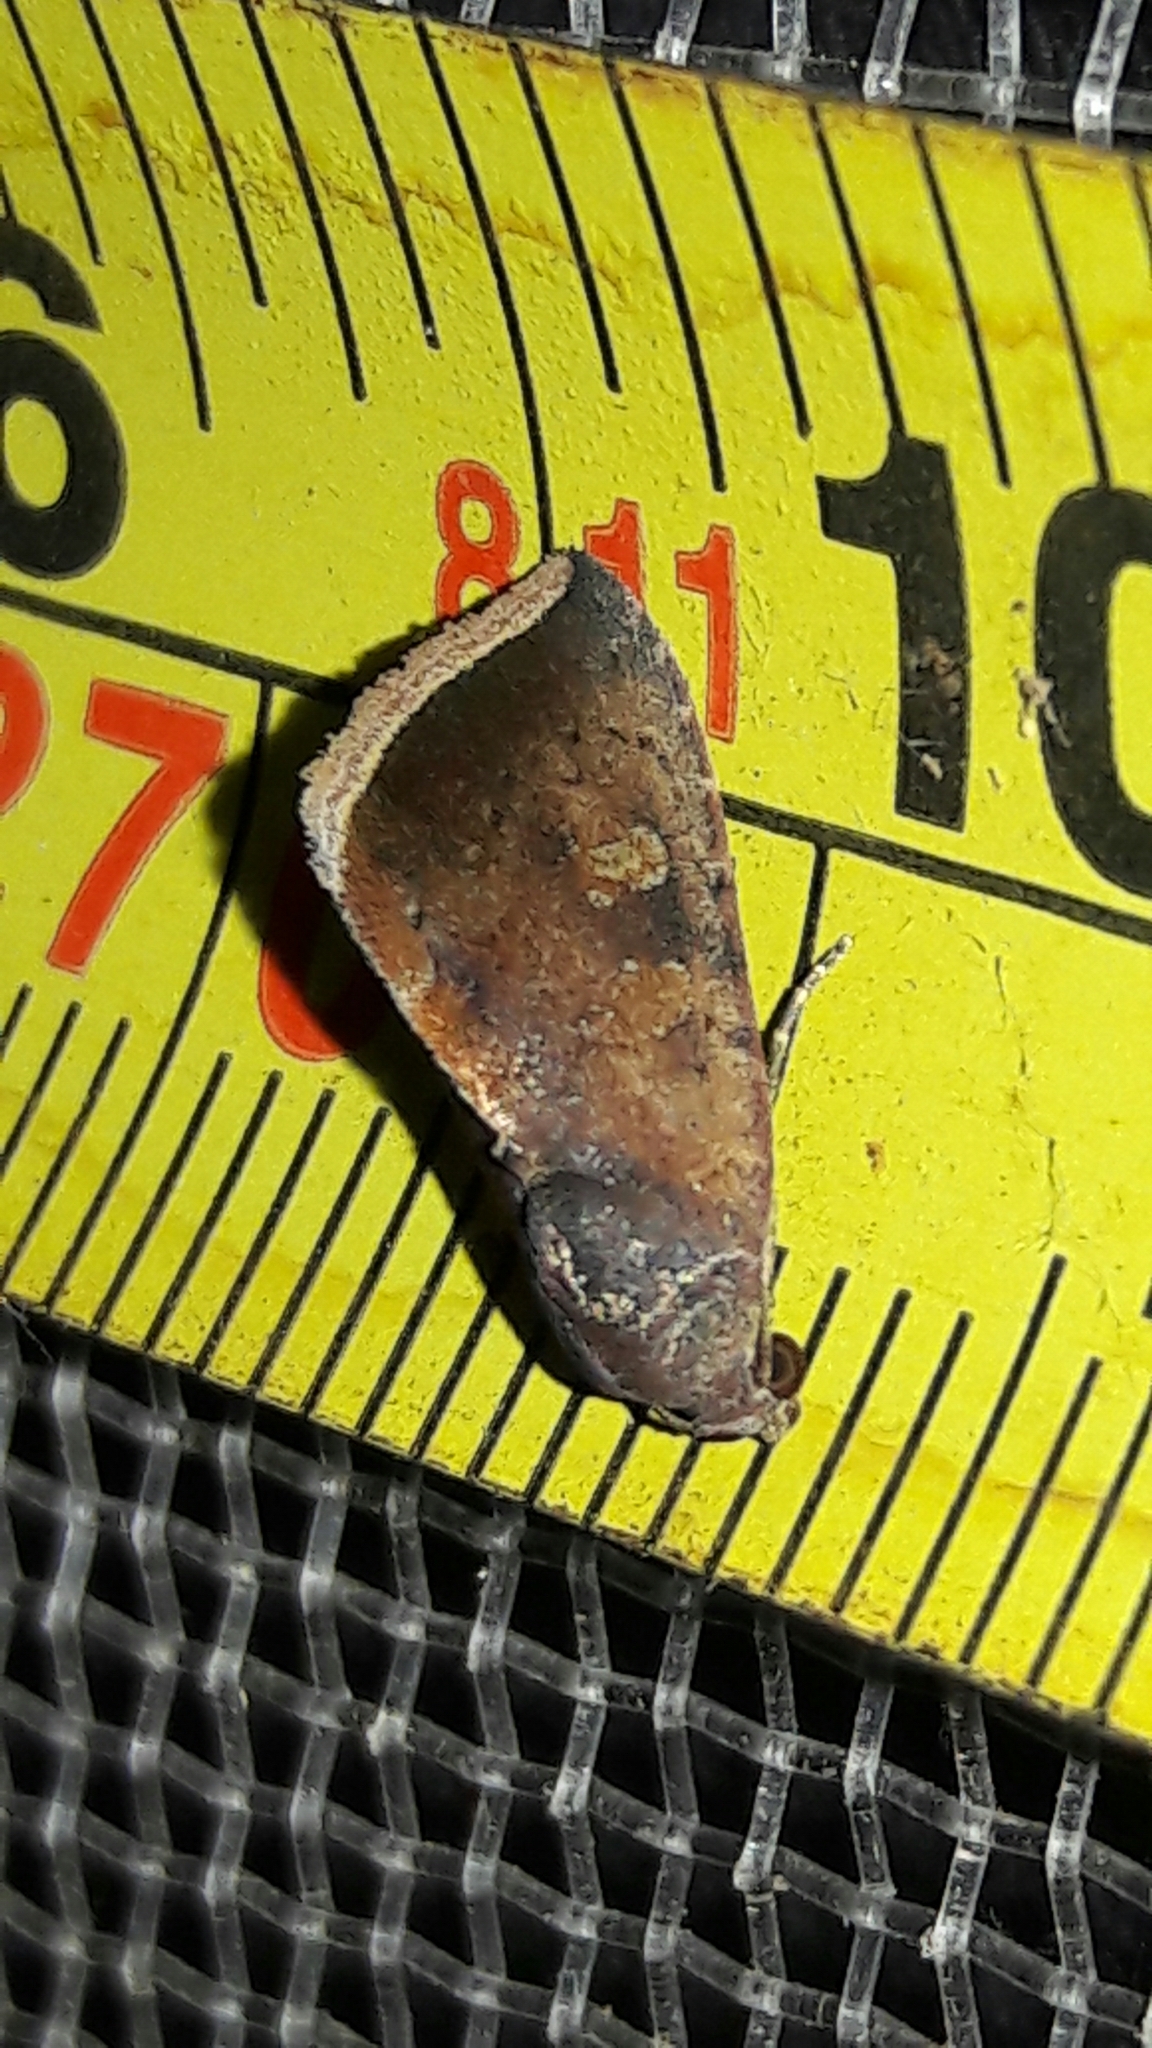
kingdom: Animalia
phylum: Arthropoda
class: Insecta
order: Lepidoptera
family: Noctuidae
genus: Micrathetis
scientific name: Micrathetis canifimbria
